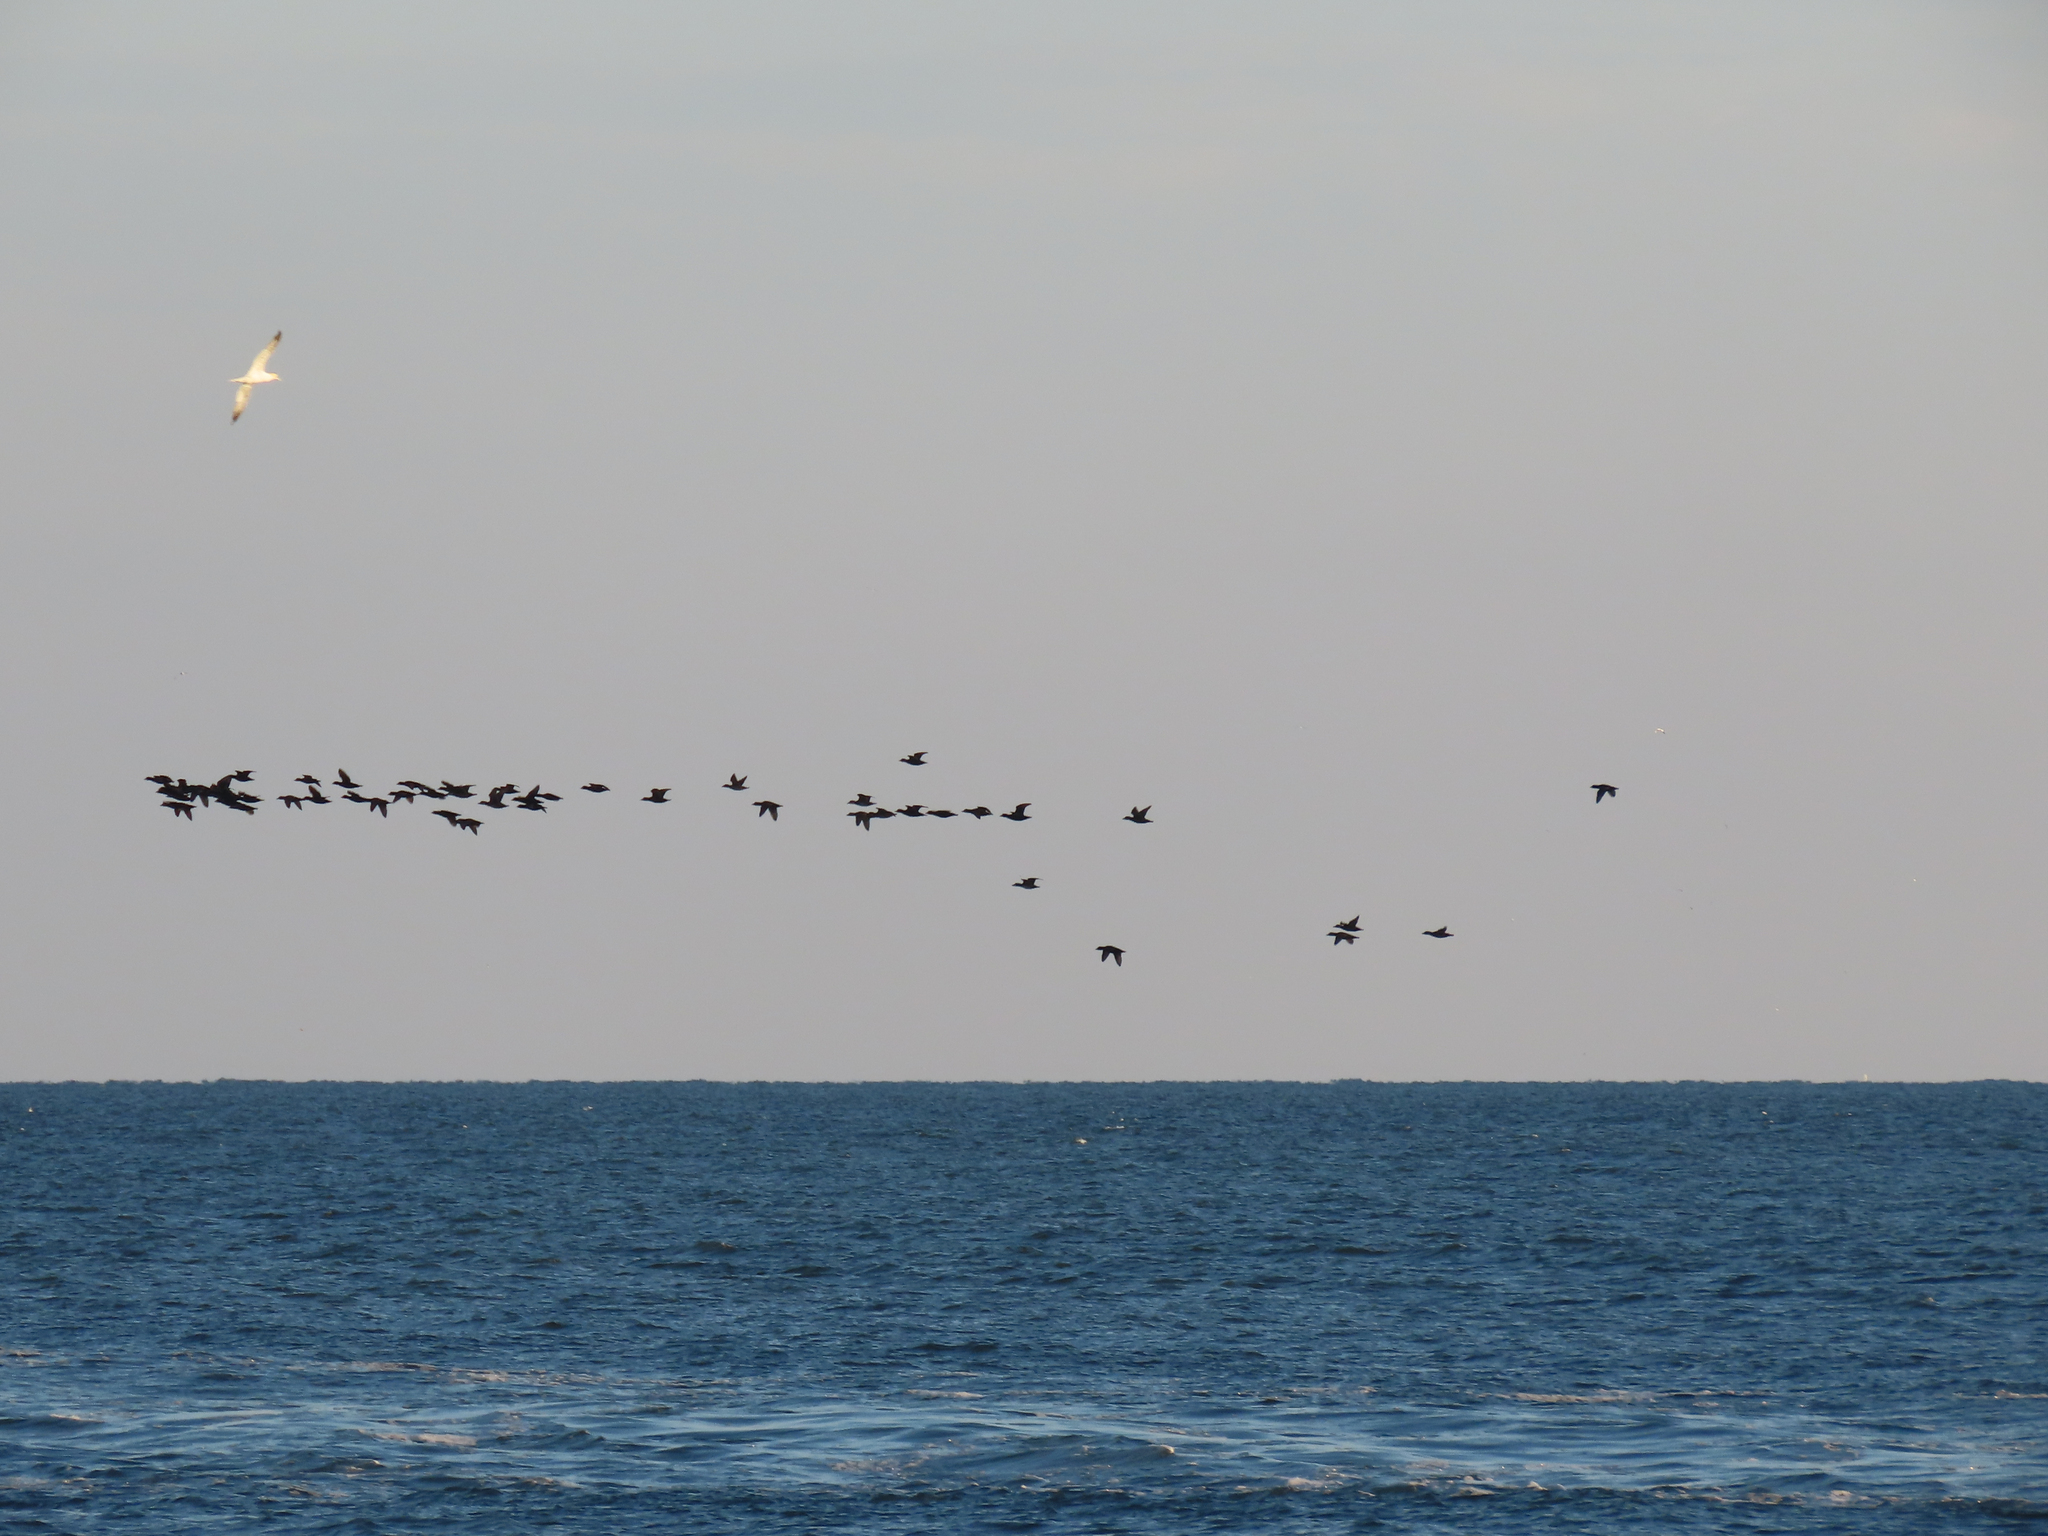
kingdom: Animalia
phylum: Chordata
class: Aves
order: Anseriformes
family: Anatidae
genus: Melanitta
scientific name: Melanitta americana
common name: Black scoter
